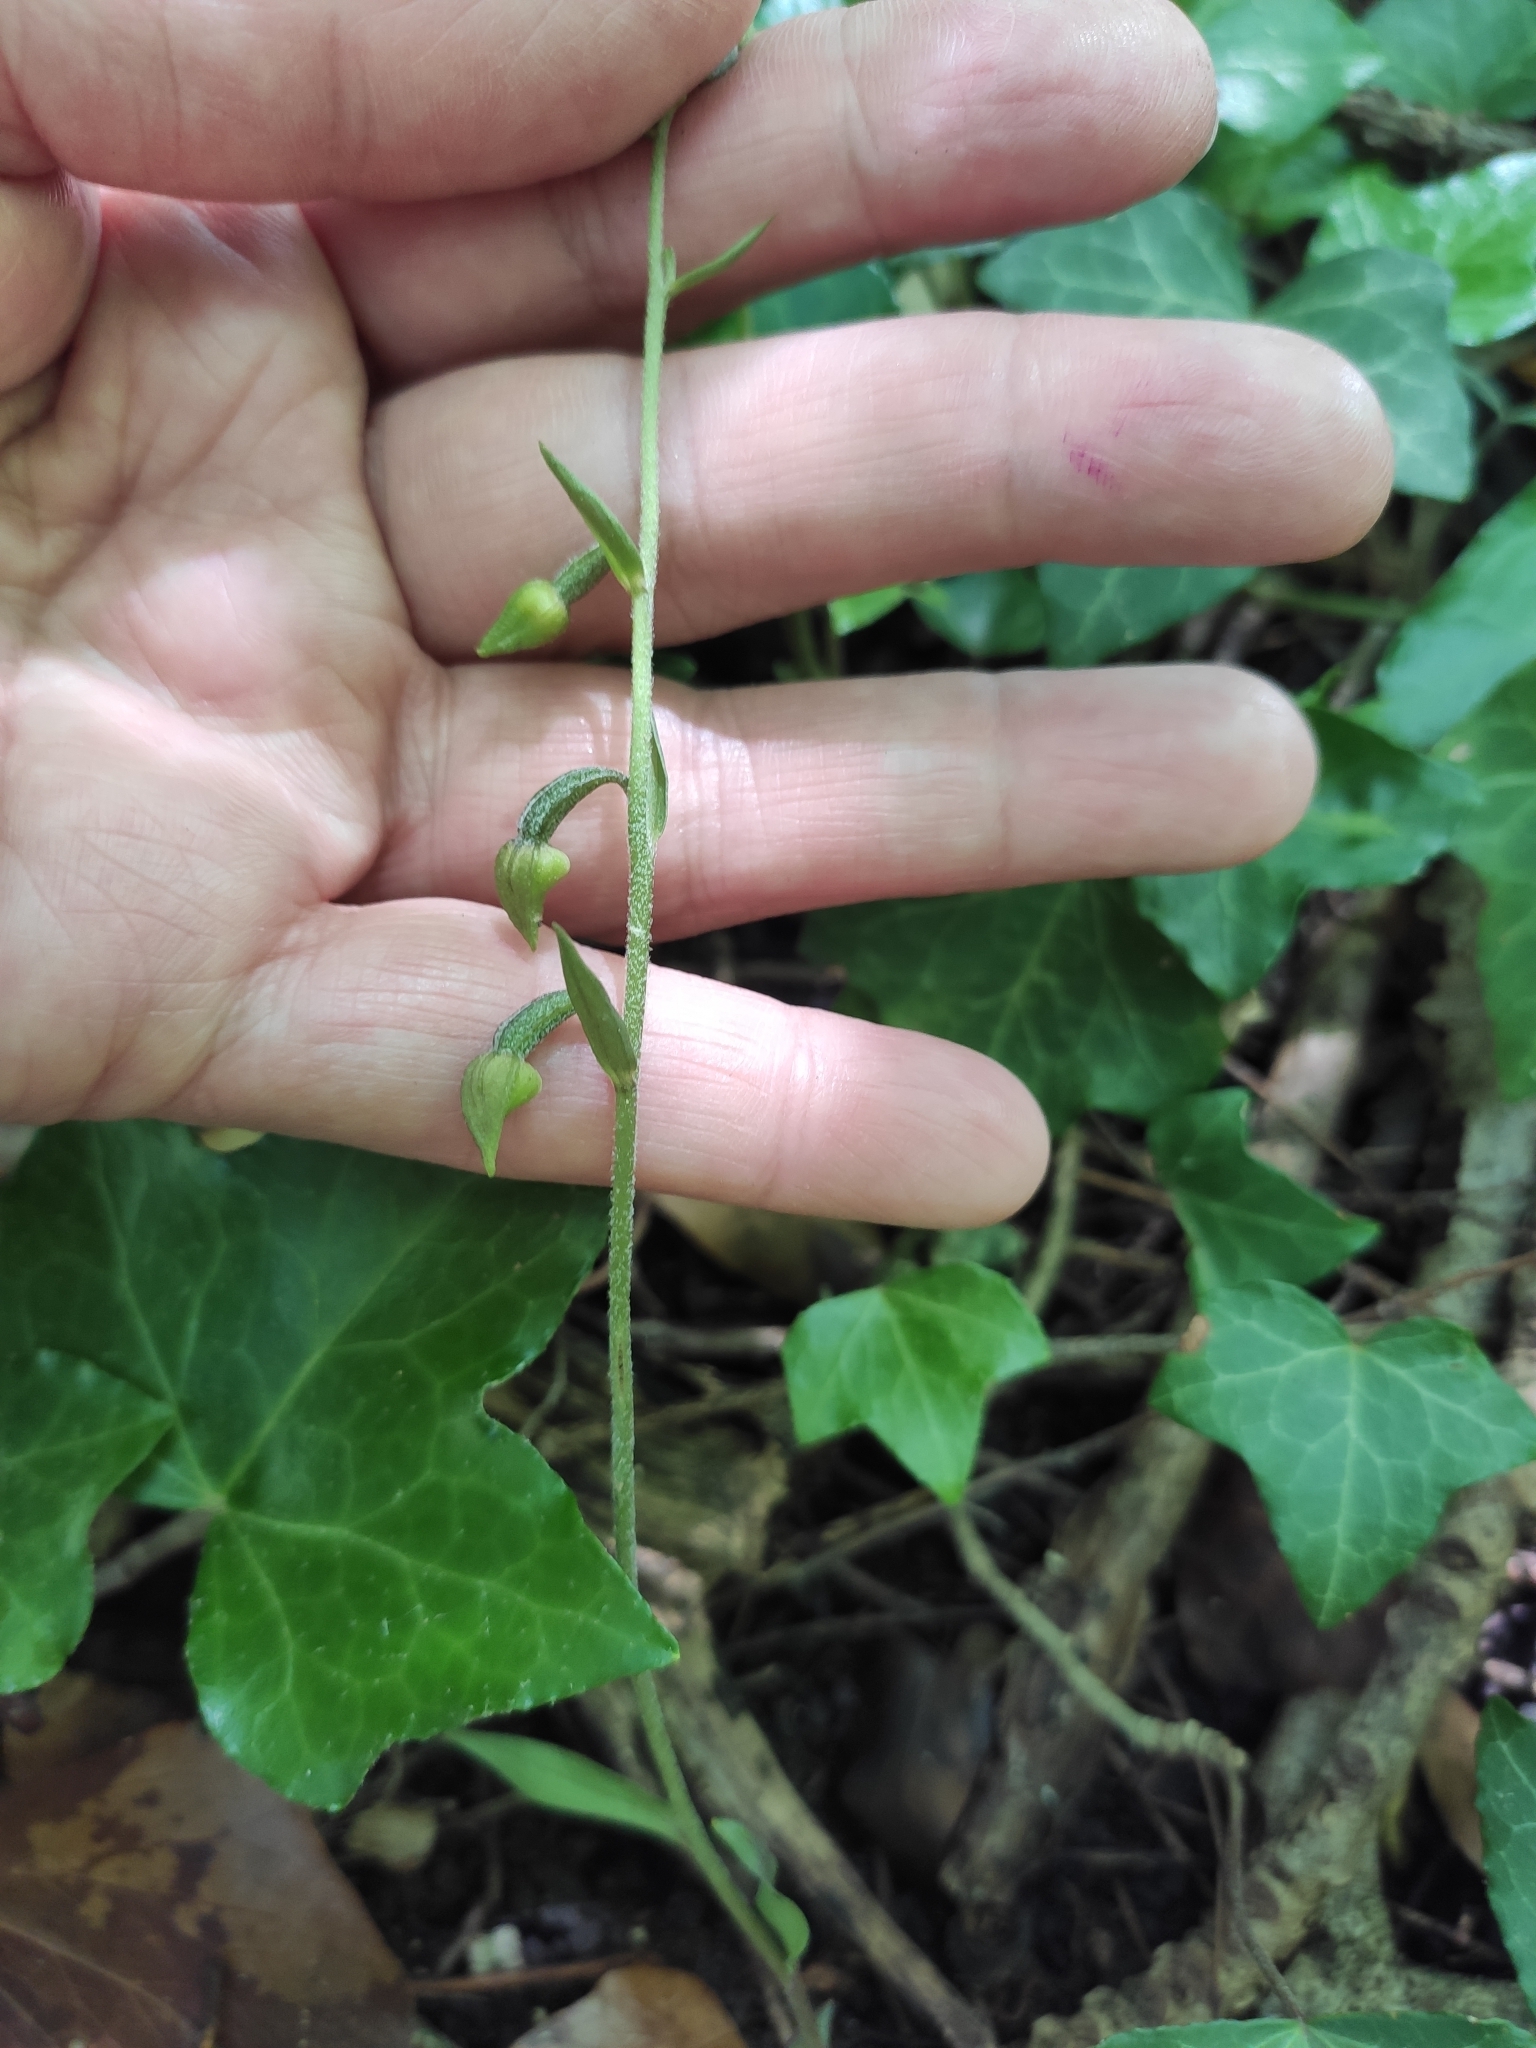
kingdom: Plantae
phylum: Tracheophyta
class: Liliopsida
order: Asparagales
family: Orchidaceae
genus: Epipactis
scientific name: Epipactis microphylla
